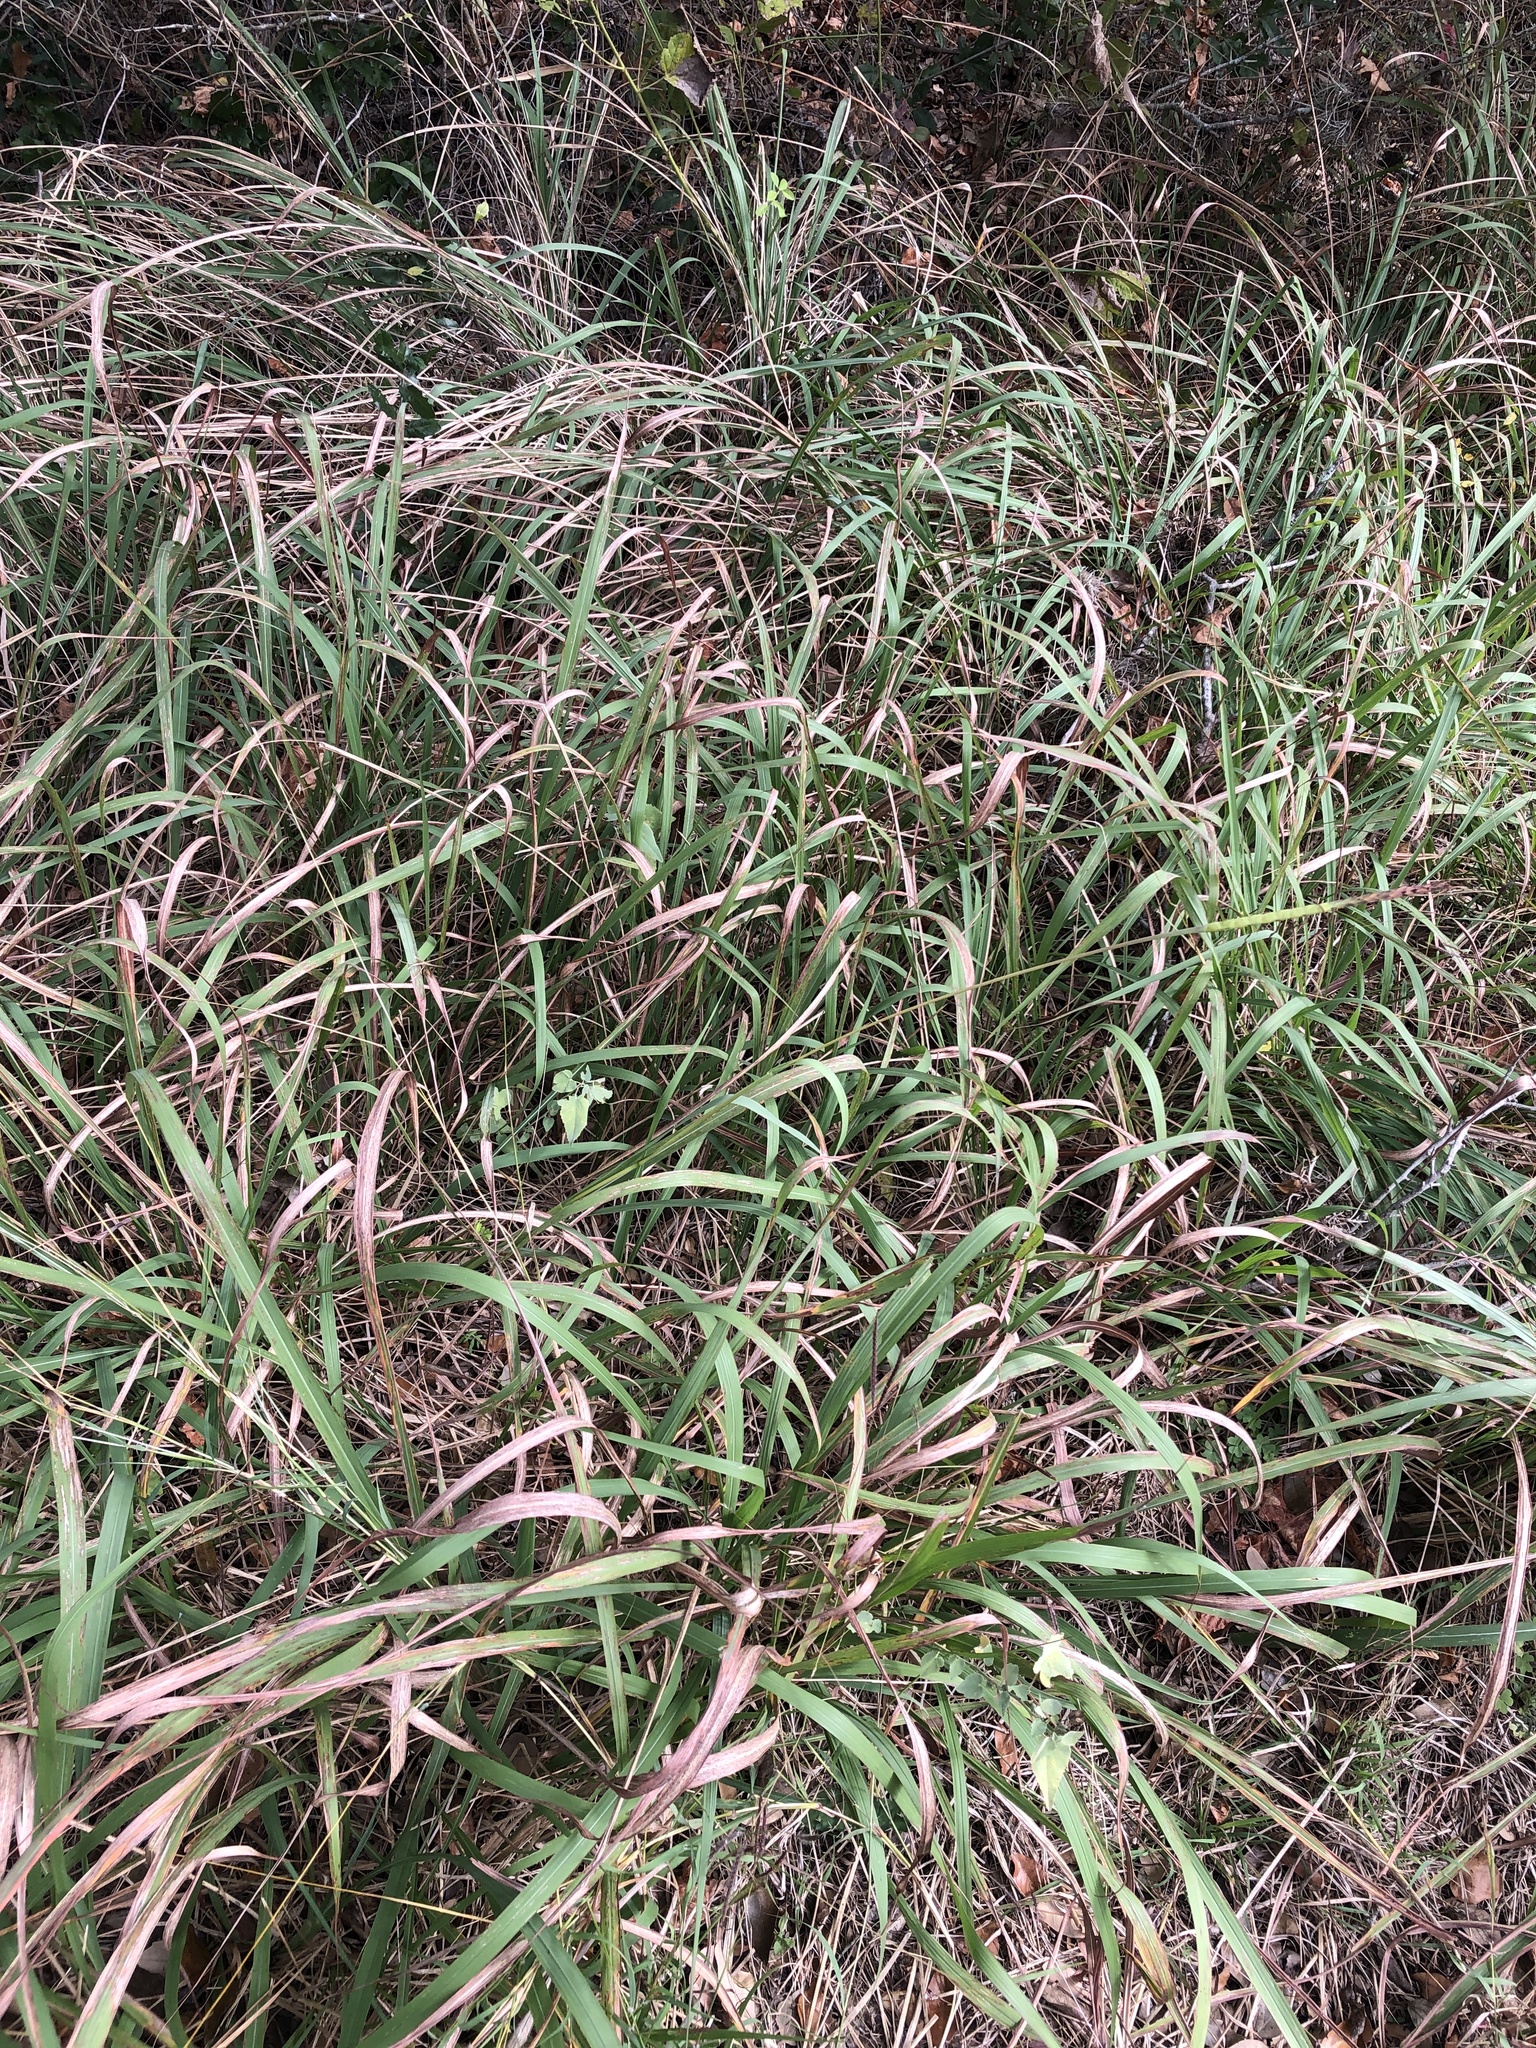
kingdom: Plantae
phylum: Tracheophyta
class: Liliopsida
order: Poales
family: Poaceae
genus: Tripsacum
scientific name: Tripsacum dactyloides
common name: Buffalo-grass
